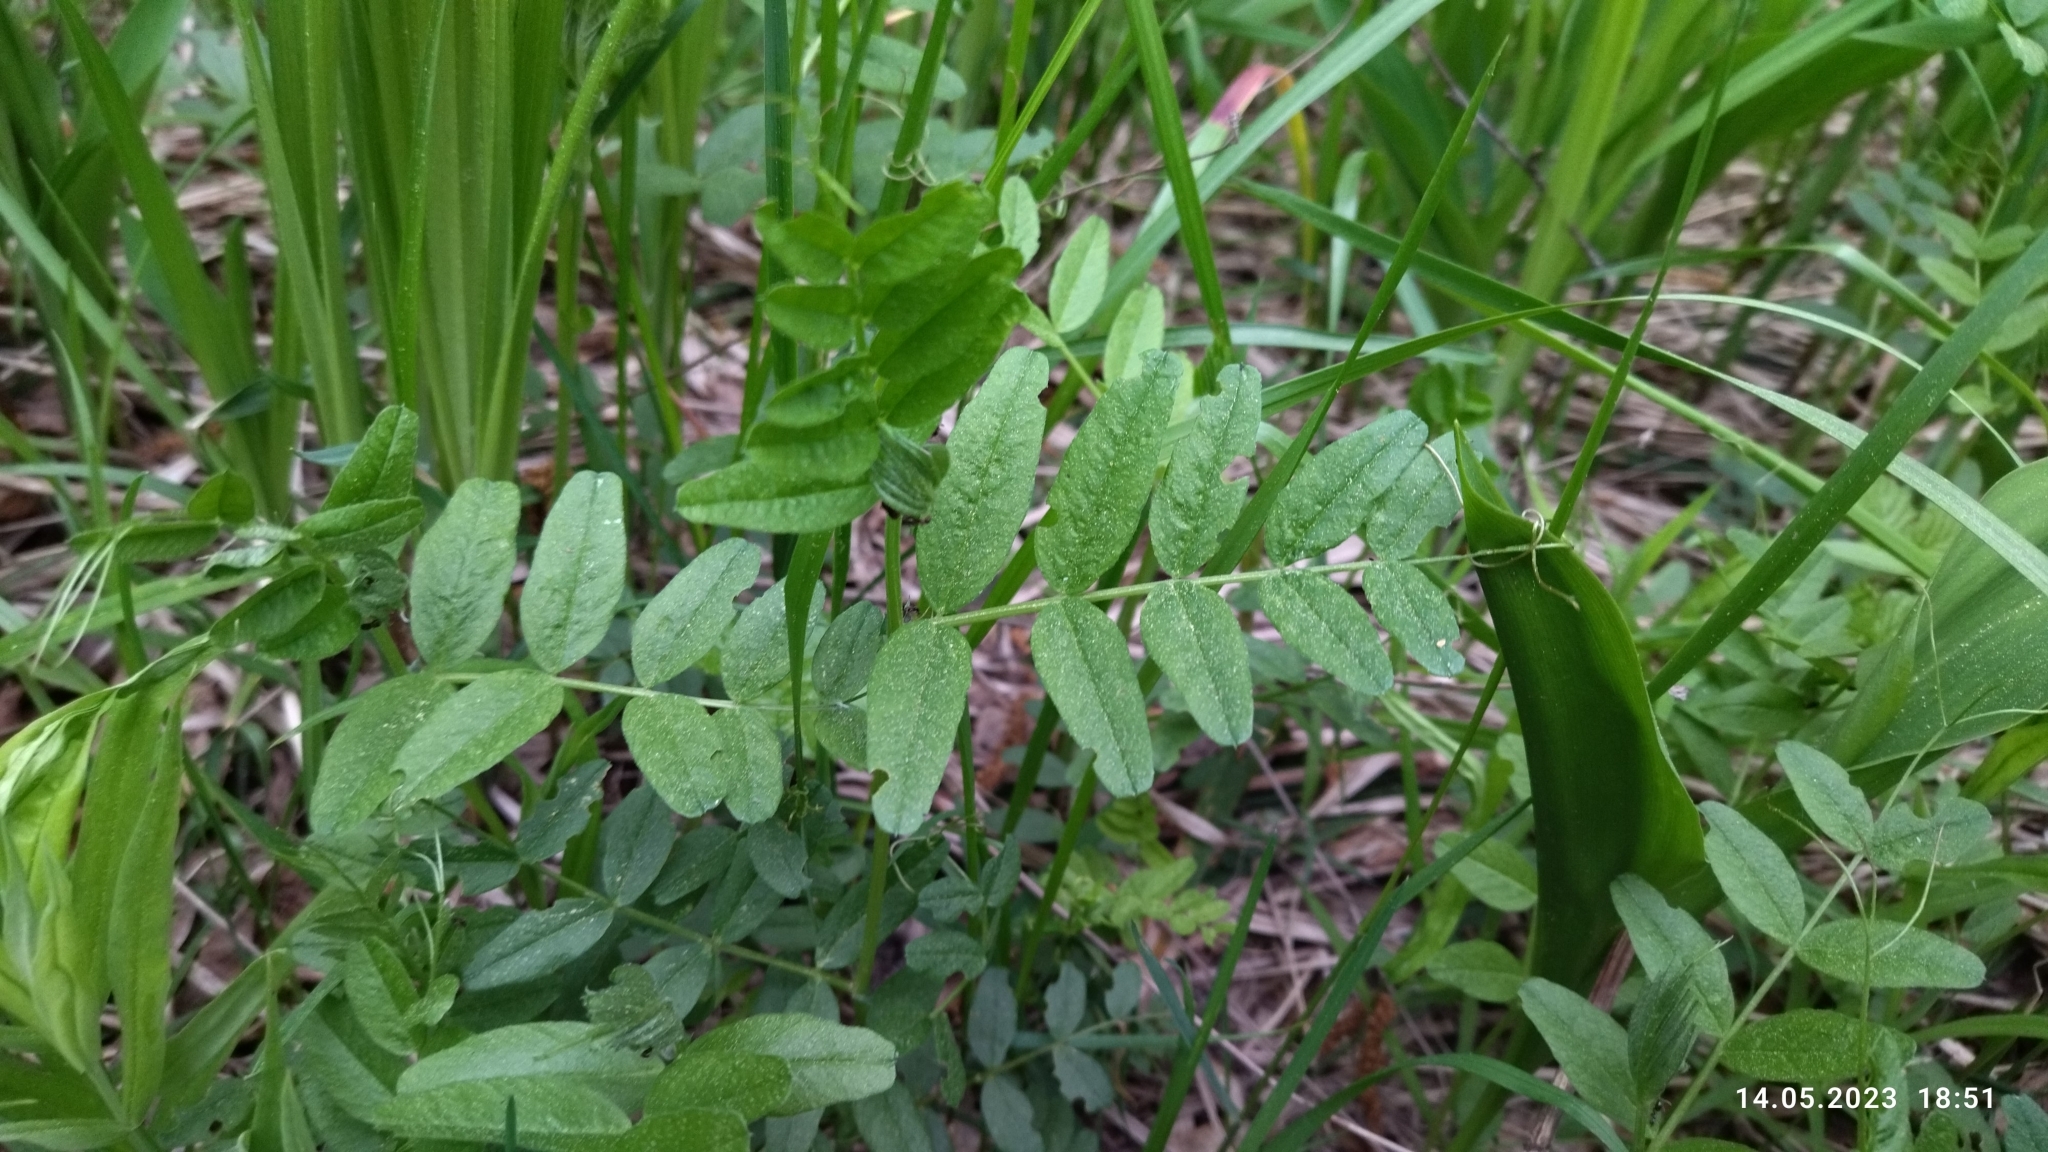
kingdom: Plantae
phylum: Tracheophyta
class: Magnoliopsida
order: Fabales
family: Fabaceae
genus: Vicia
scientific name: Vicia sepium
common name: Bush vetch
